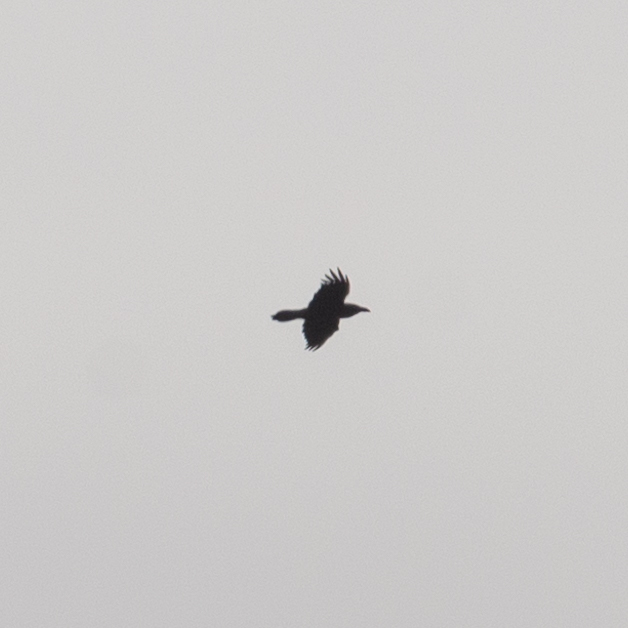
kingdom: Animalia
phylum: Chordata
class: Aves
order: Passeriformes
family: Corvidae
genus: Corvus
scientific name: Corvus corax
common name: Common raven
